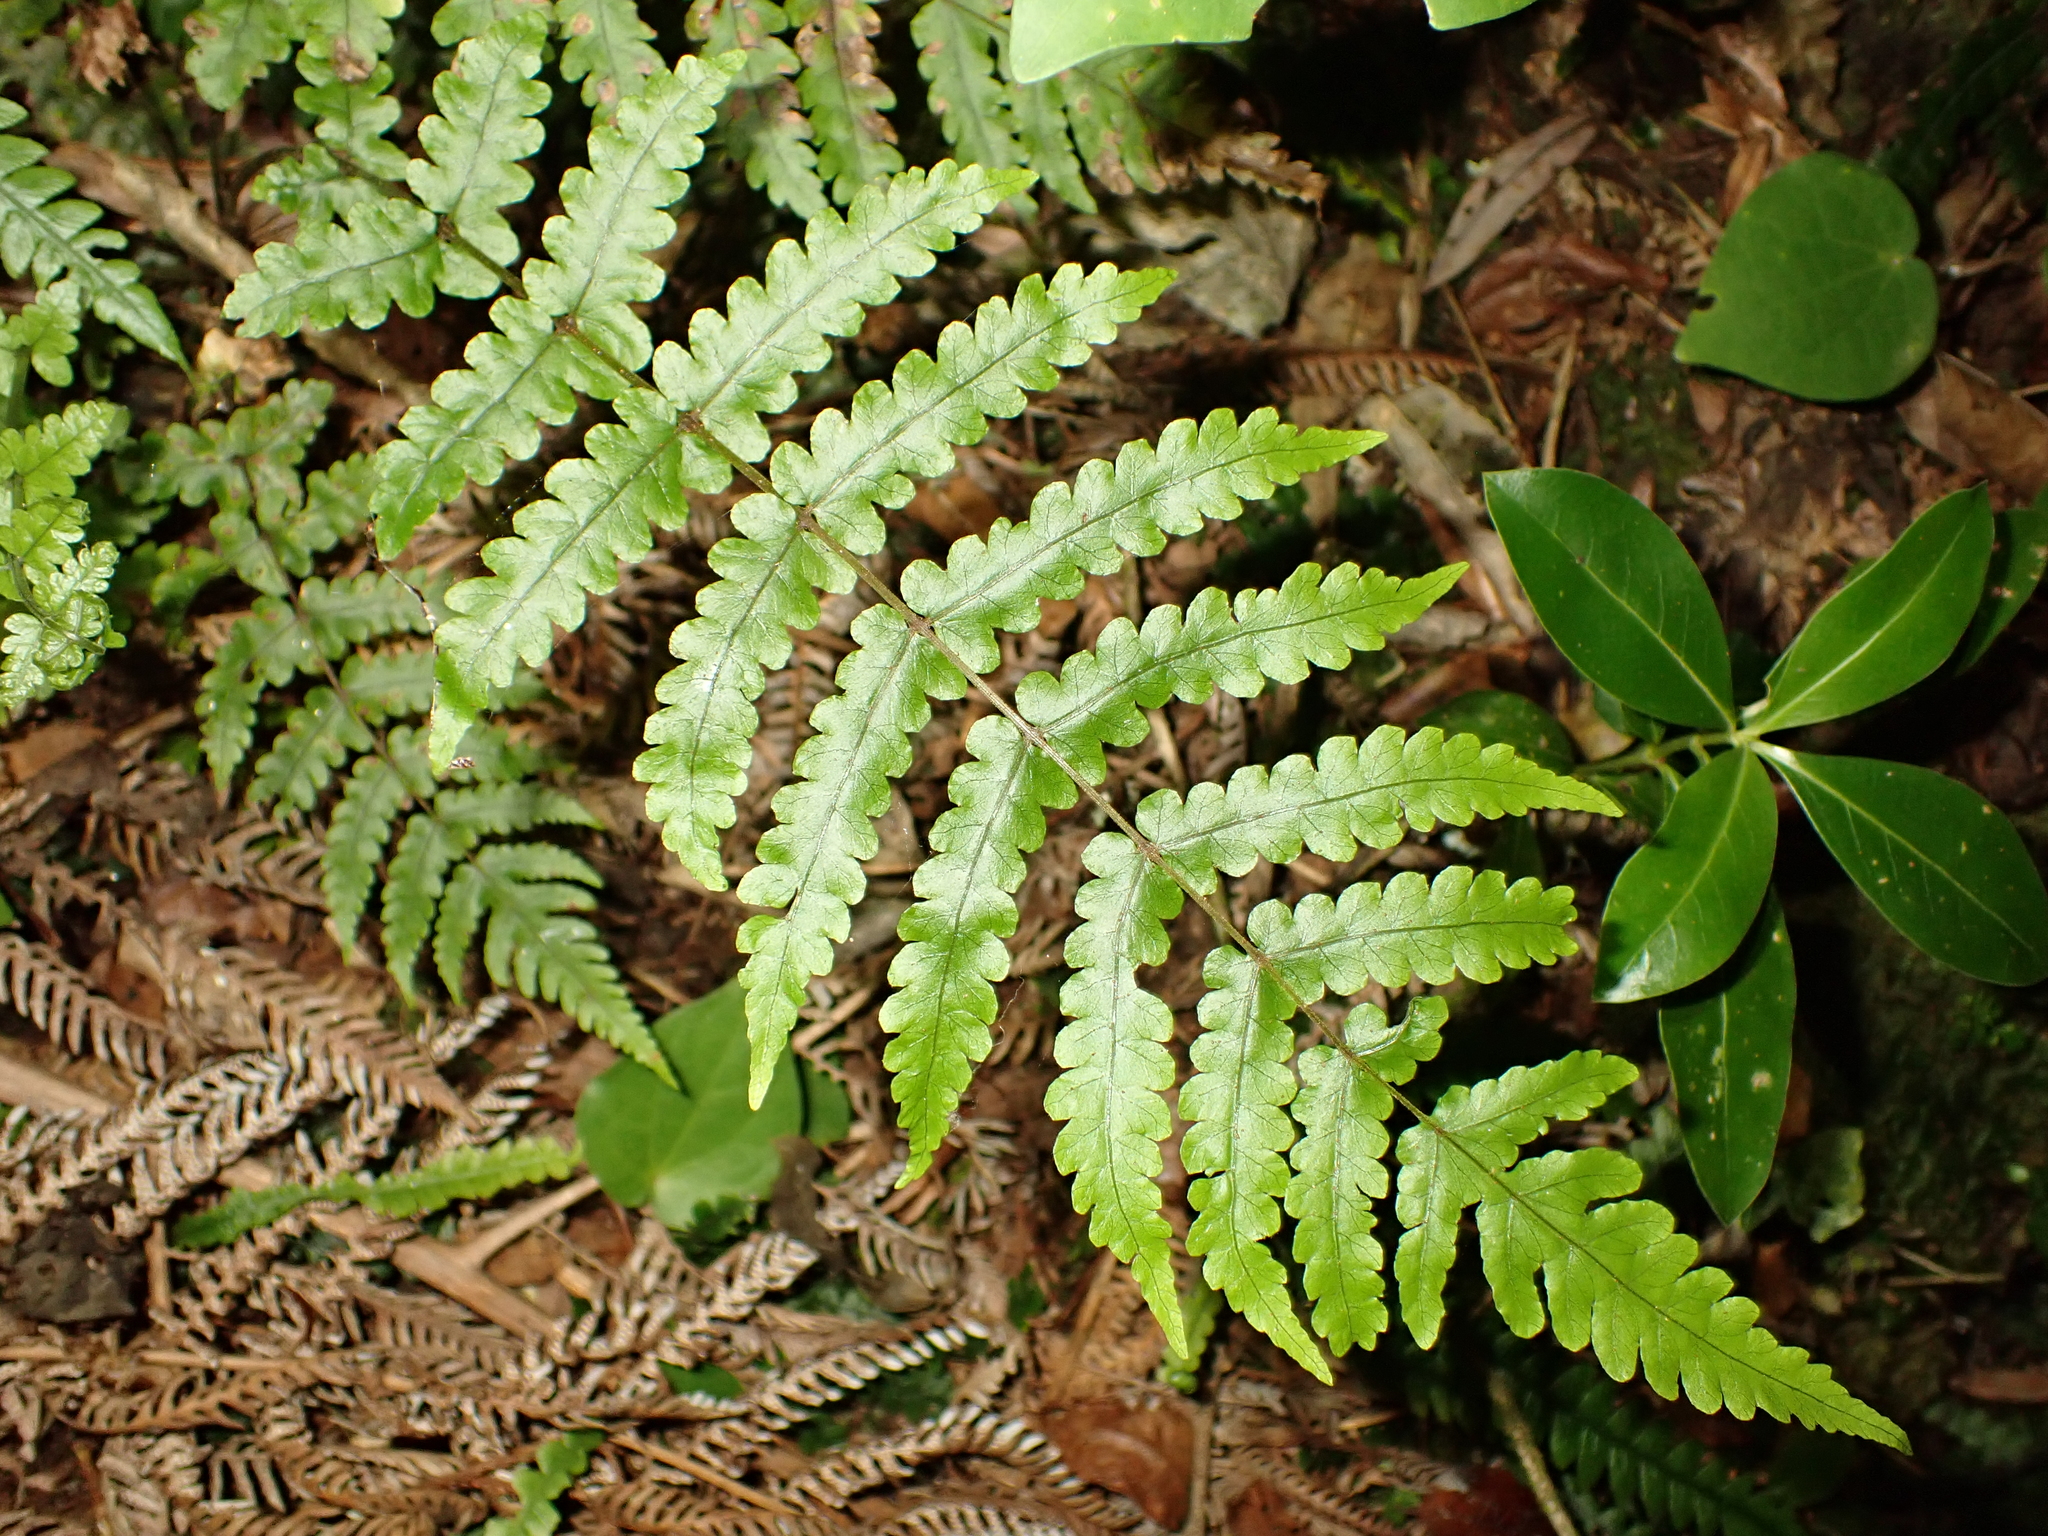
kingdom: Plantae
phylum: Tracheophyta
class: Polypodiopsida
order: Polypodiales
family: Thelypteridaceae
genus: Pakau
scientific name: Pakau pennigera
